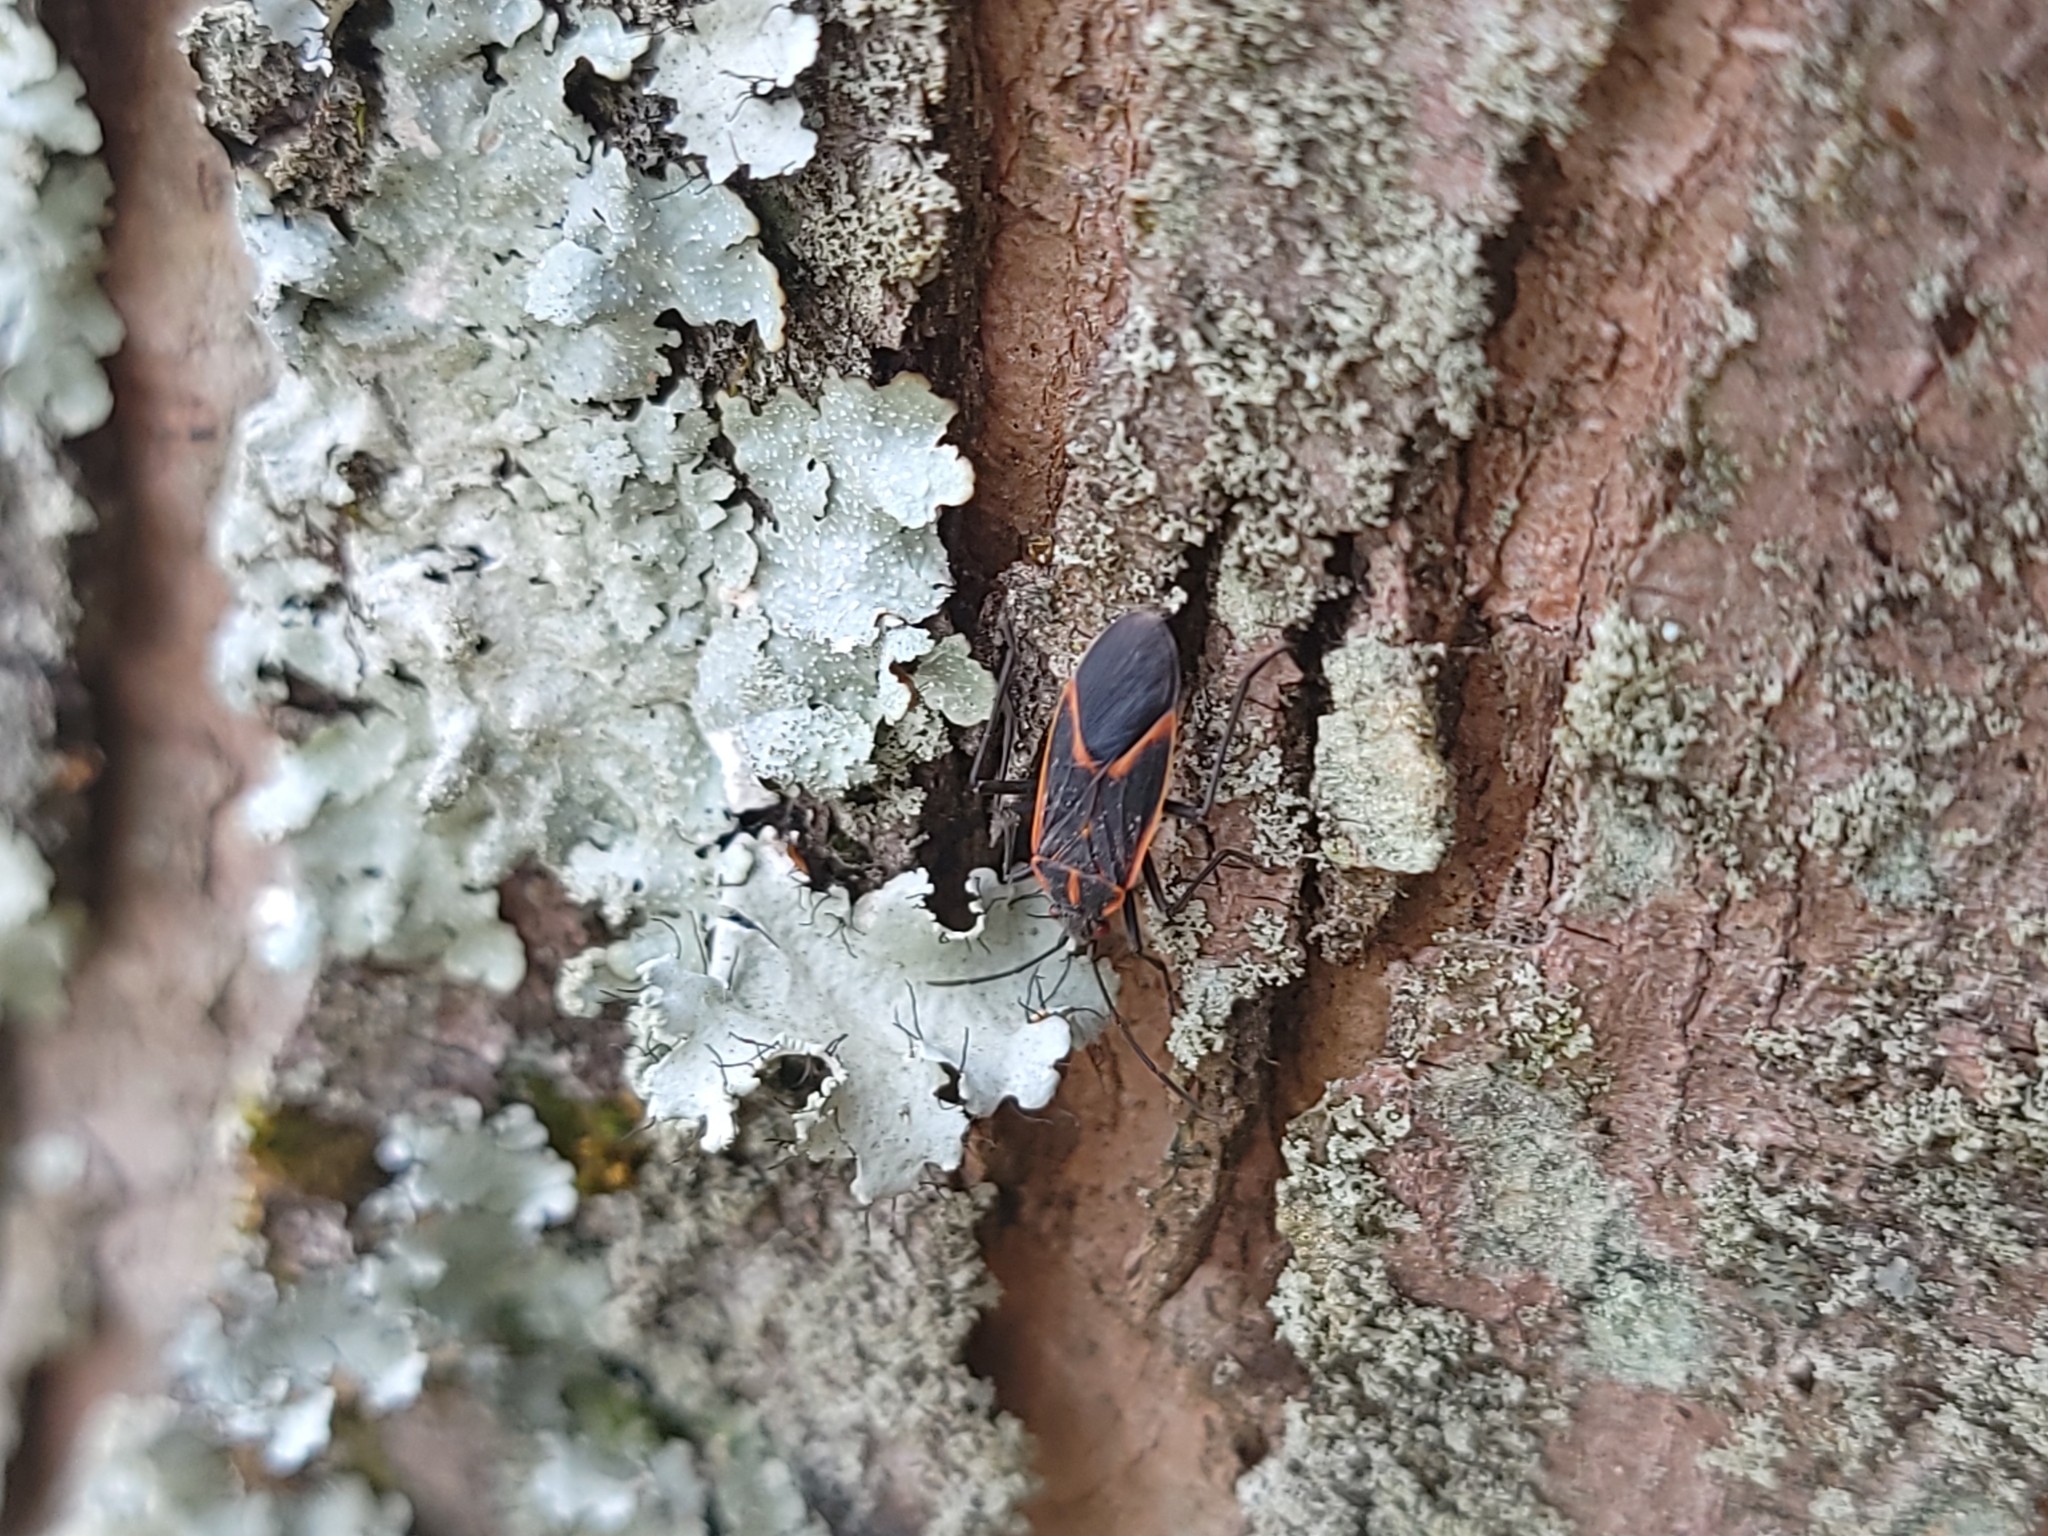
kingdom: Animalia
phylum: Arthropoda
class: Insecta
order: Hemiptera
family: Rhopalidae
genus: Boisea
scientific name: Boisea trivittata
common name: Boxelder bug
